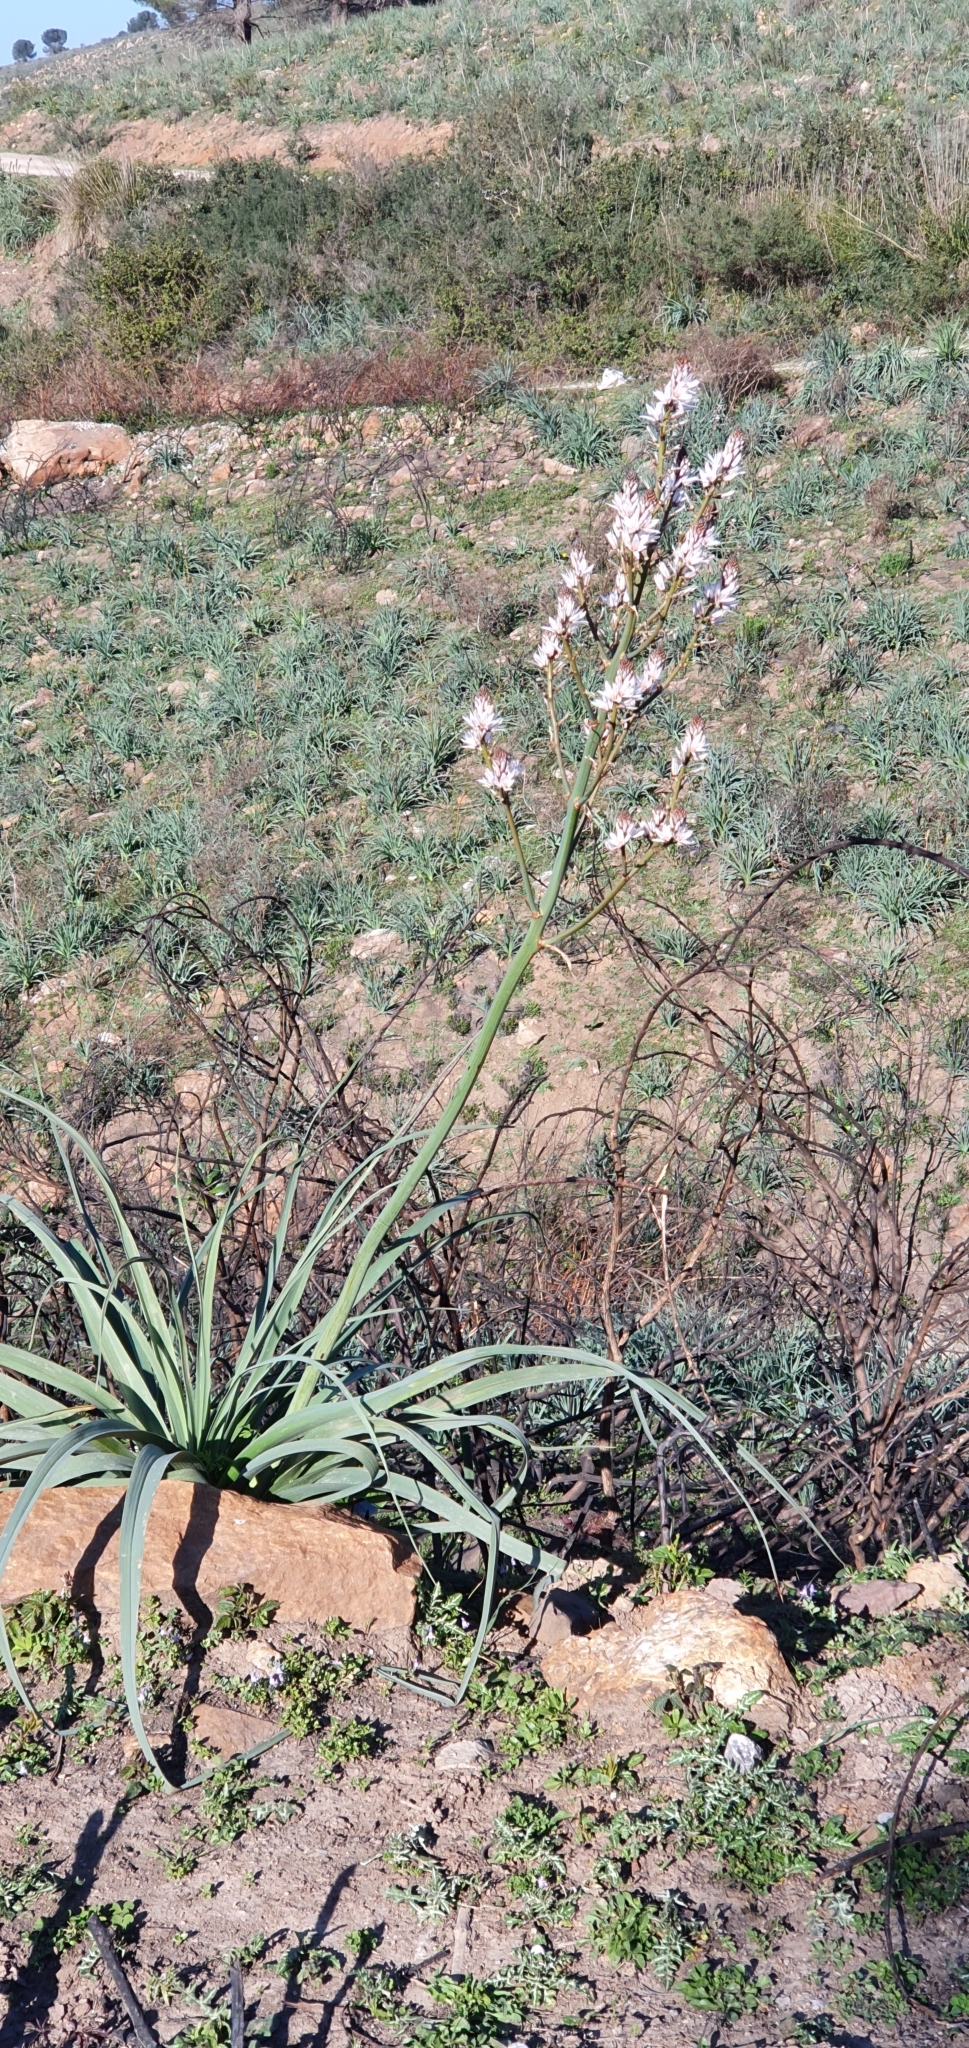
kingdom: Plantae
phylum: Tracheophyta
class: Liliopsida
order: Asparagales
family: Asphodelaceae
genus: Asphodelus
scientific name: Asphodelus ramosus
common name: Silverrod
